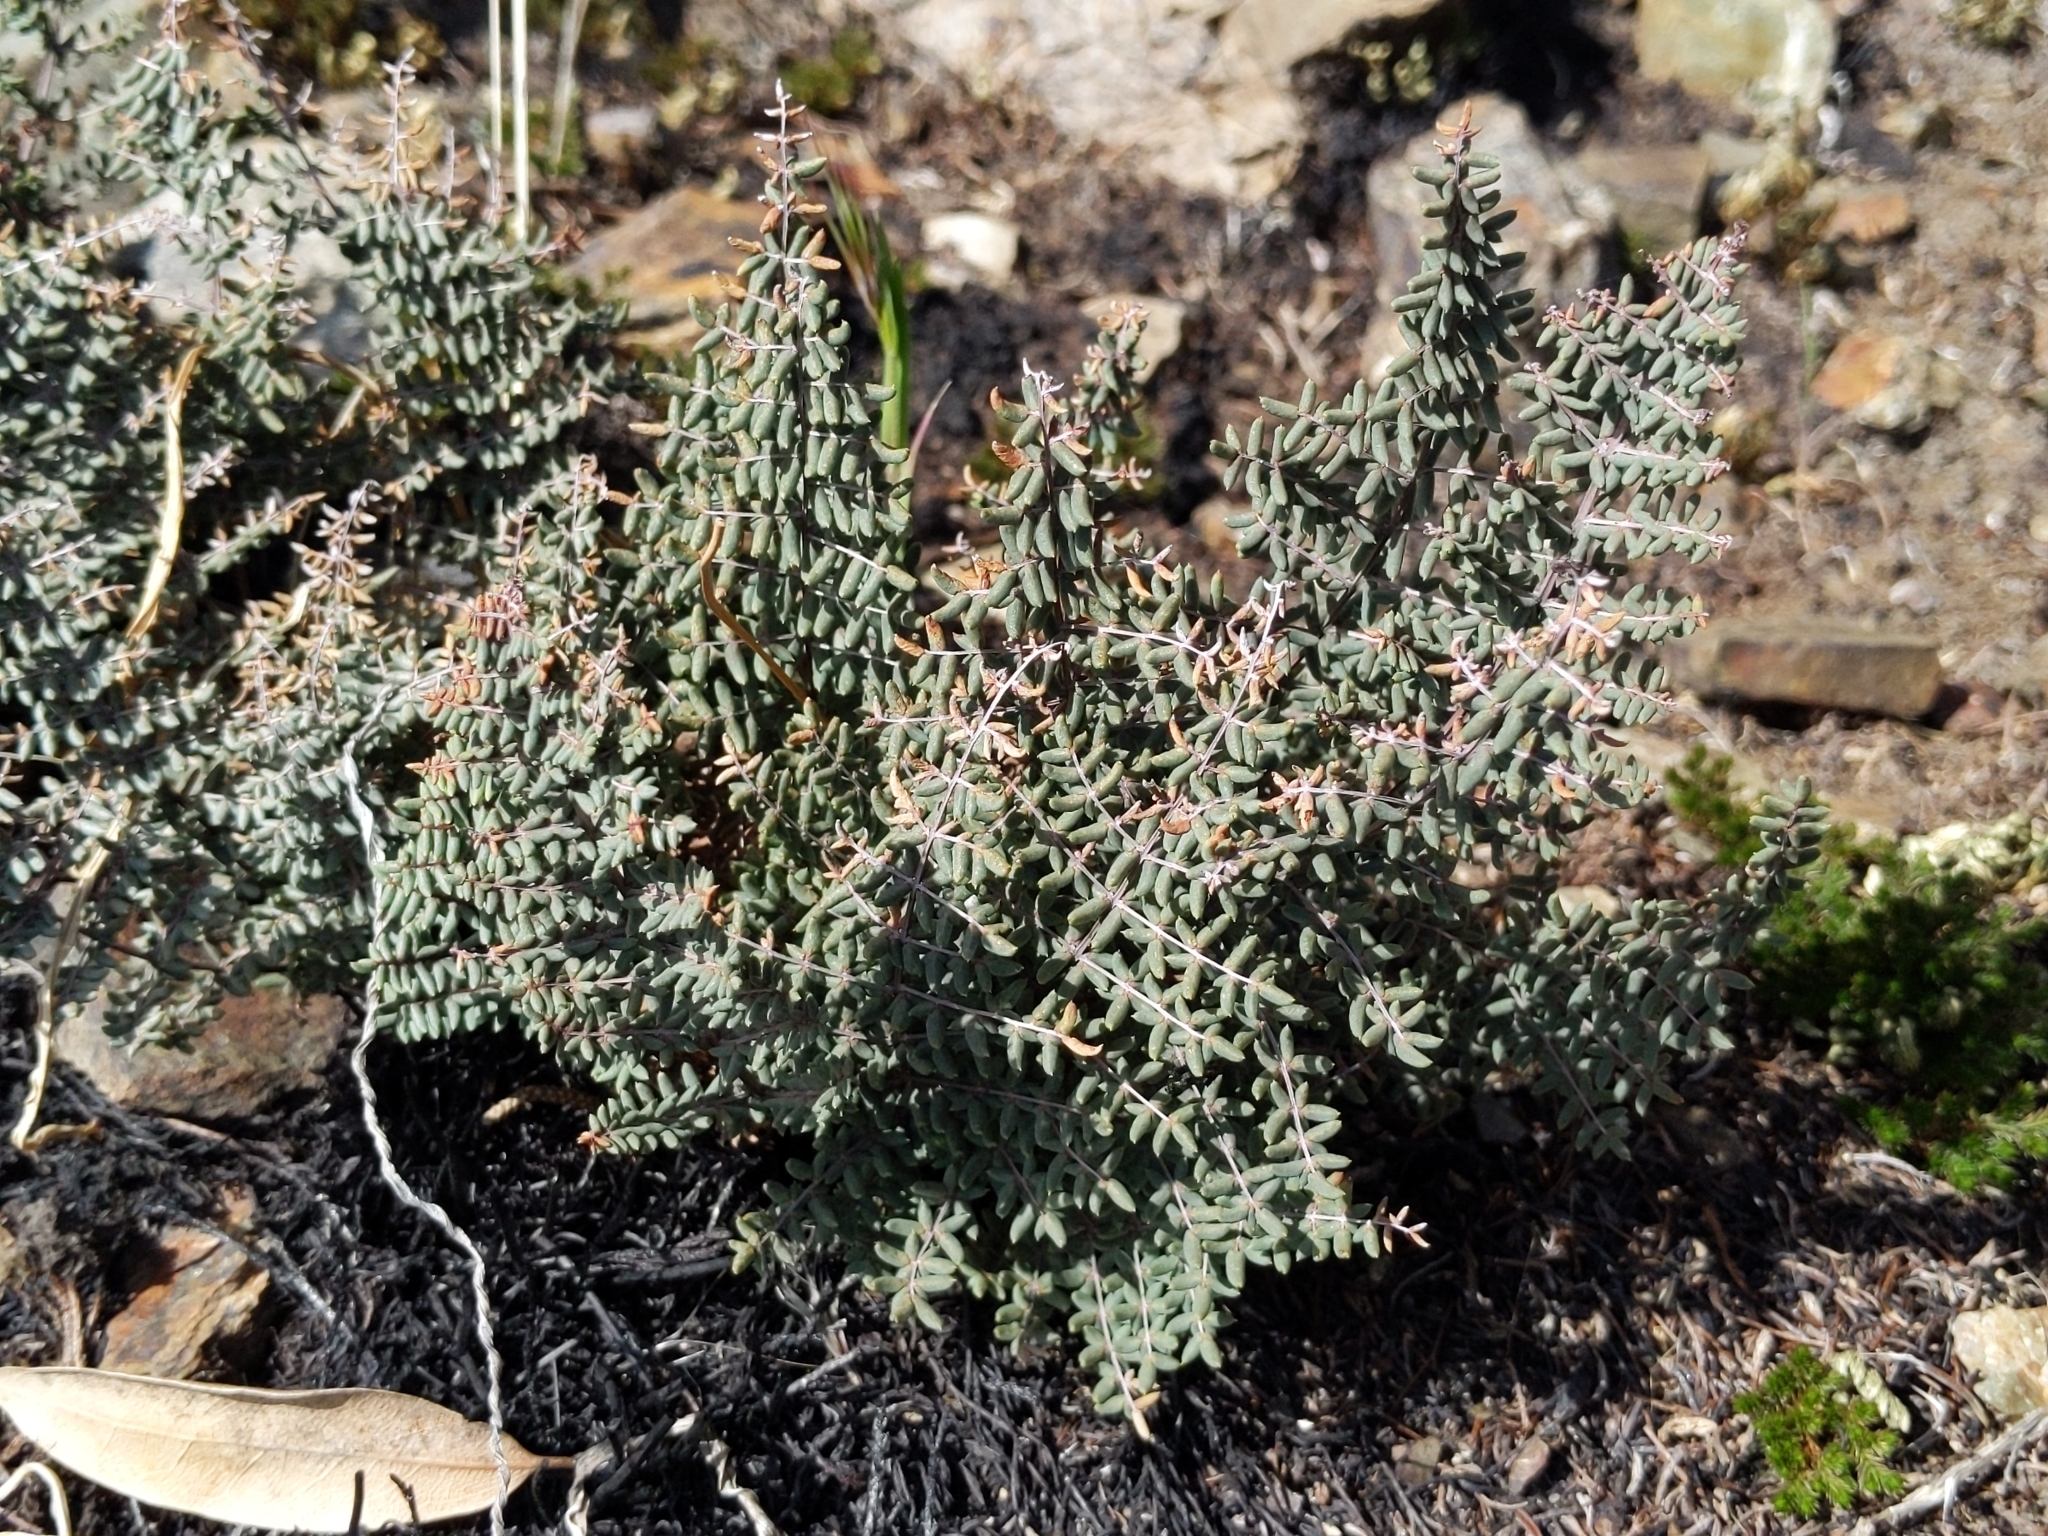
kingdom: Plantae
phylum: Tracheophyta
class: Polypodiopsida
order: Polypodiales
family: Pteridaceae
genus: Pellaea
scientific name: Pellaea mucronata
